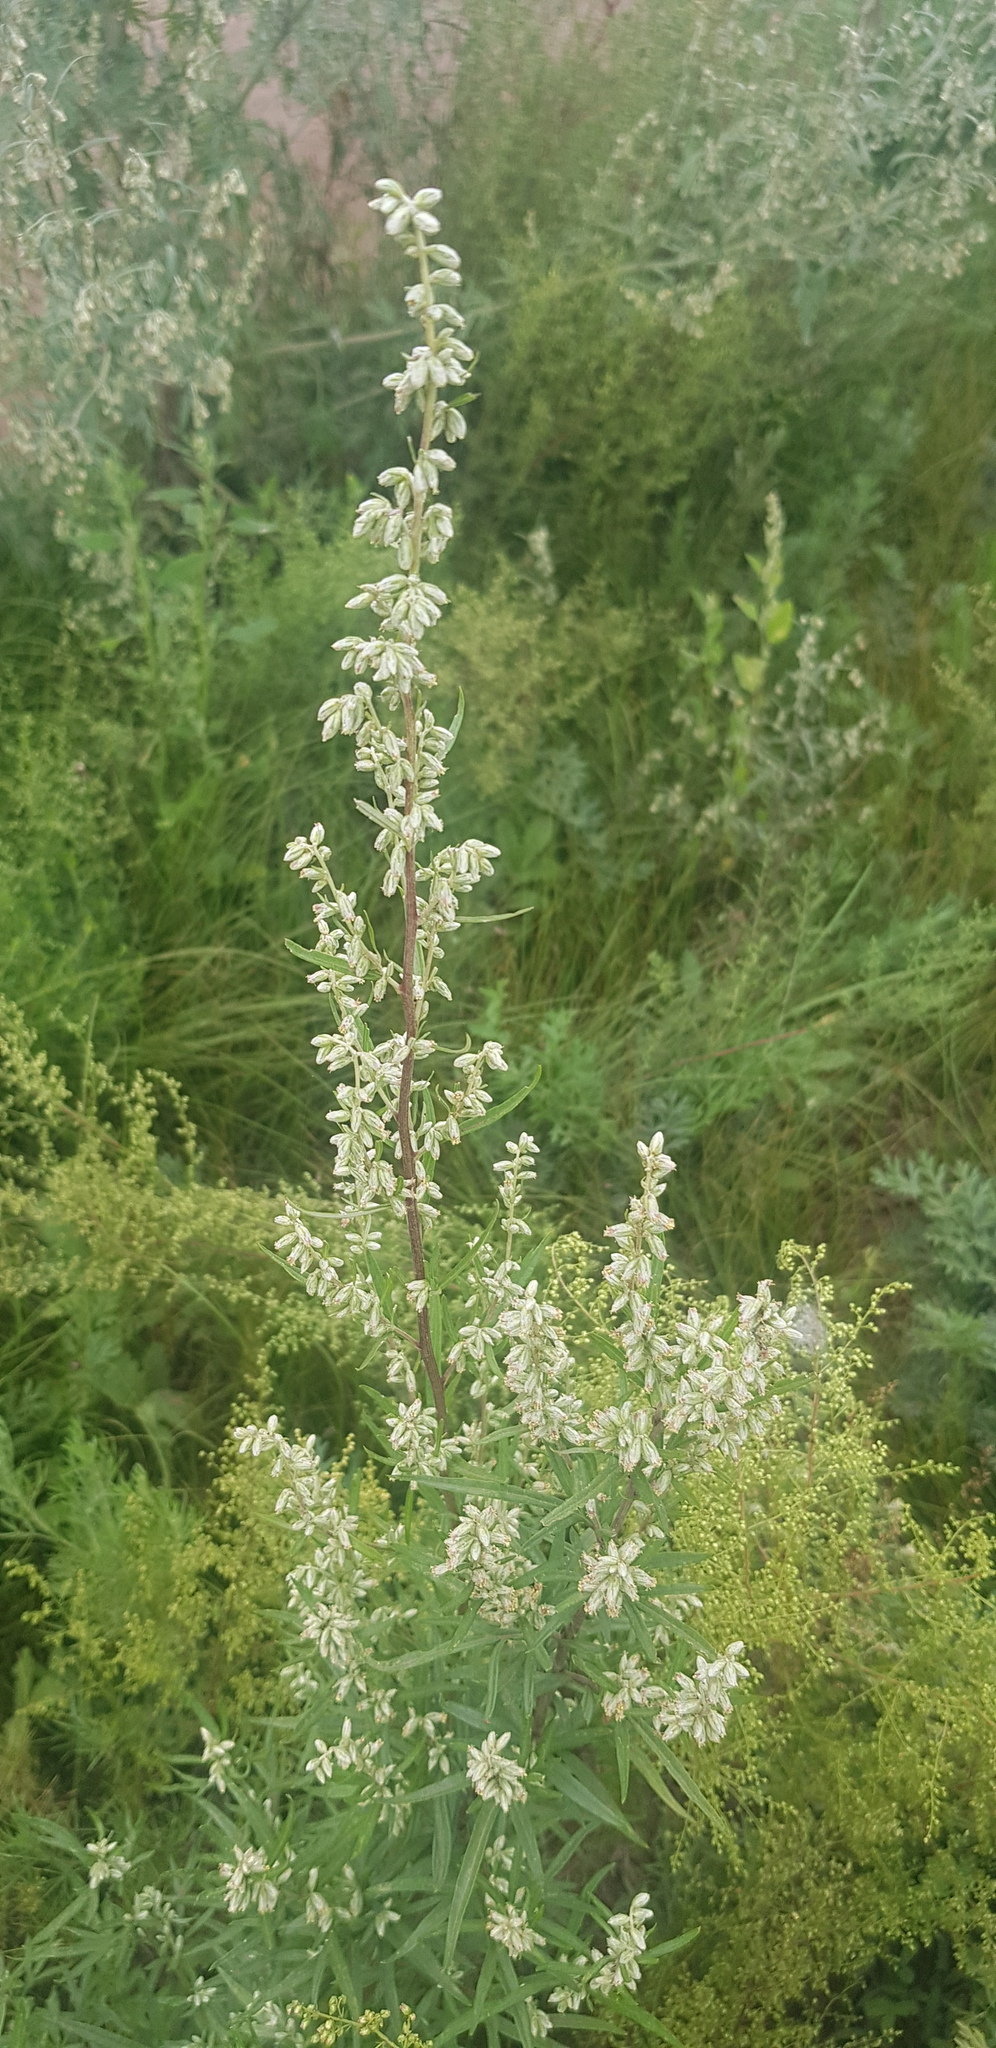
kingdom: Plantae
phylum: Tracheophyta
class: Magnoliopsida
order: Asterales
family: Asteraceae
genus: Artemisia
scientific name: Artemisia vulgaris
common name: Mugwort
